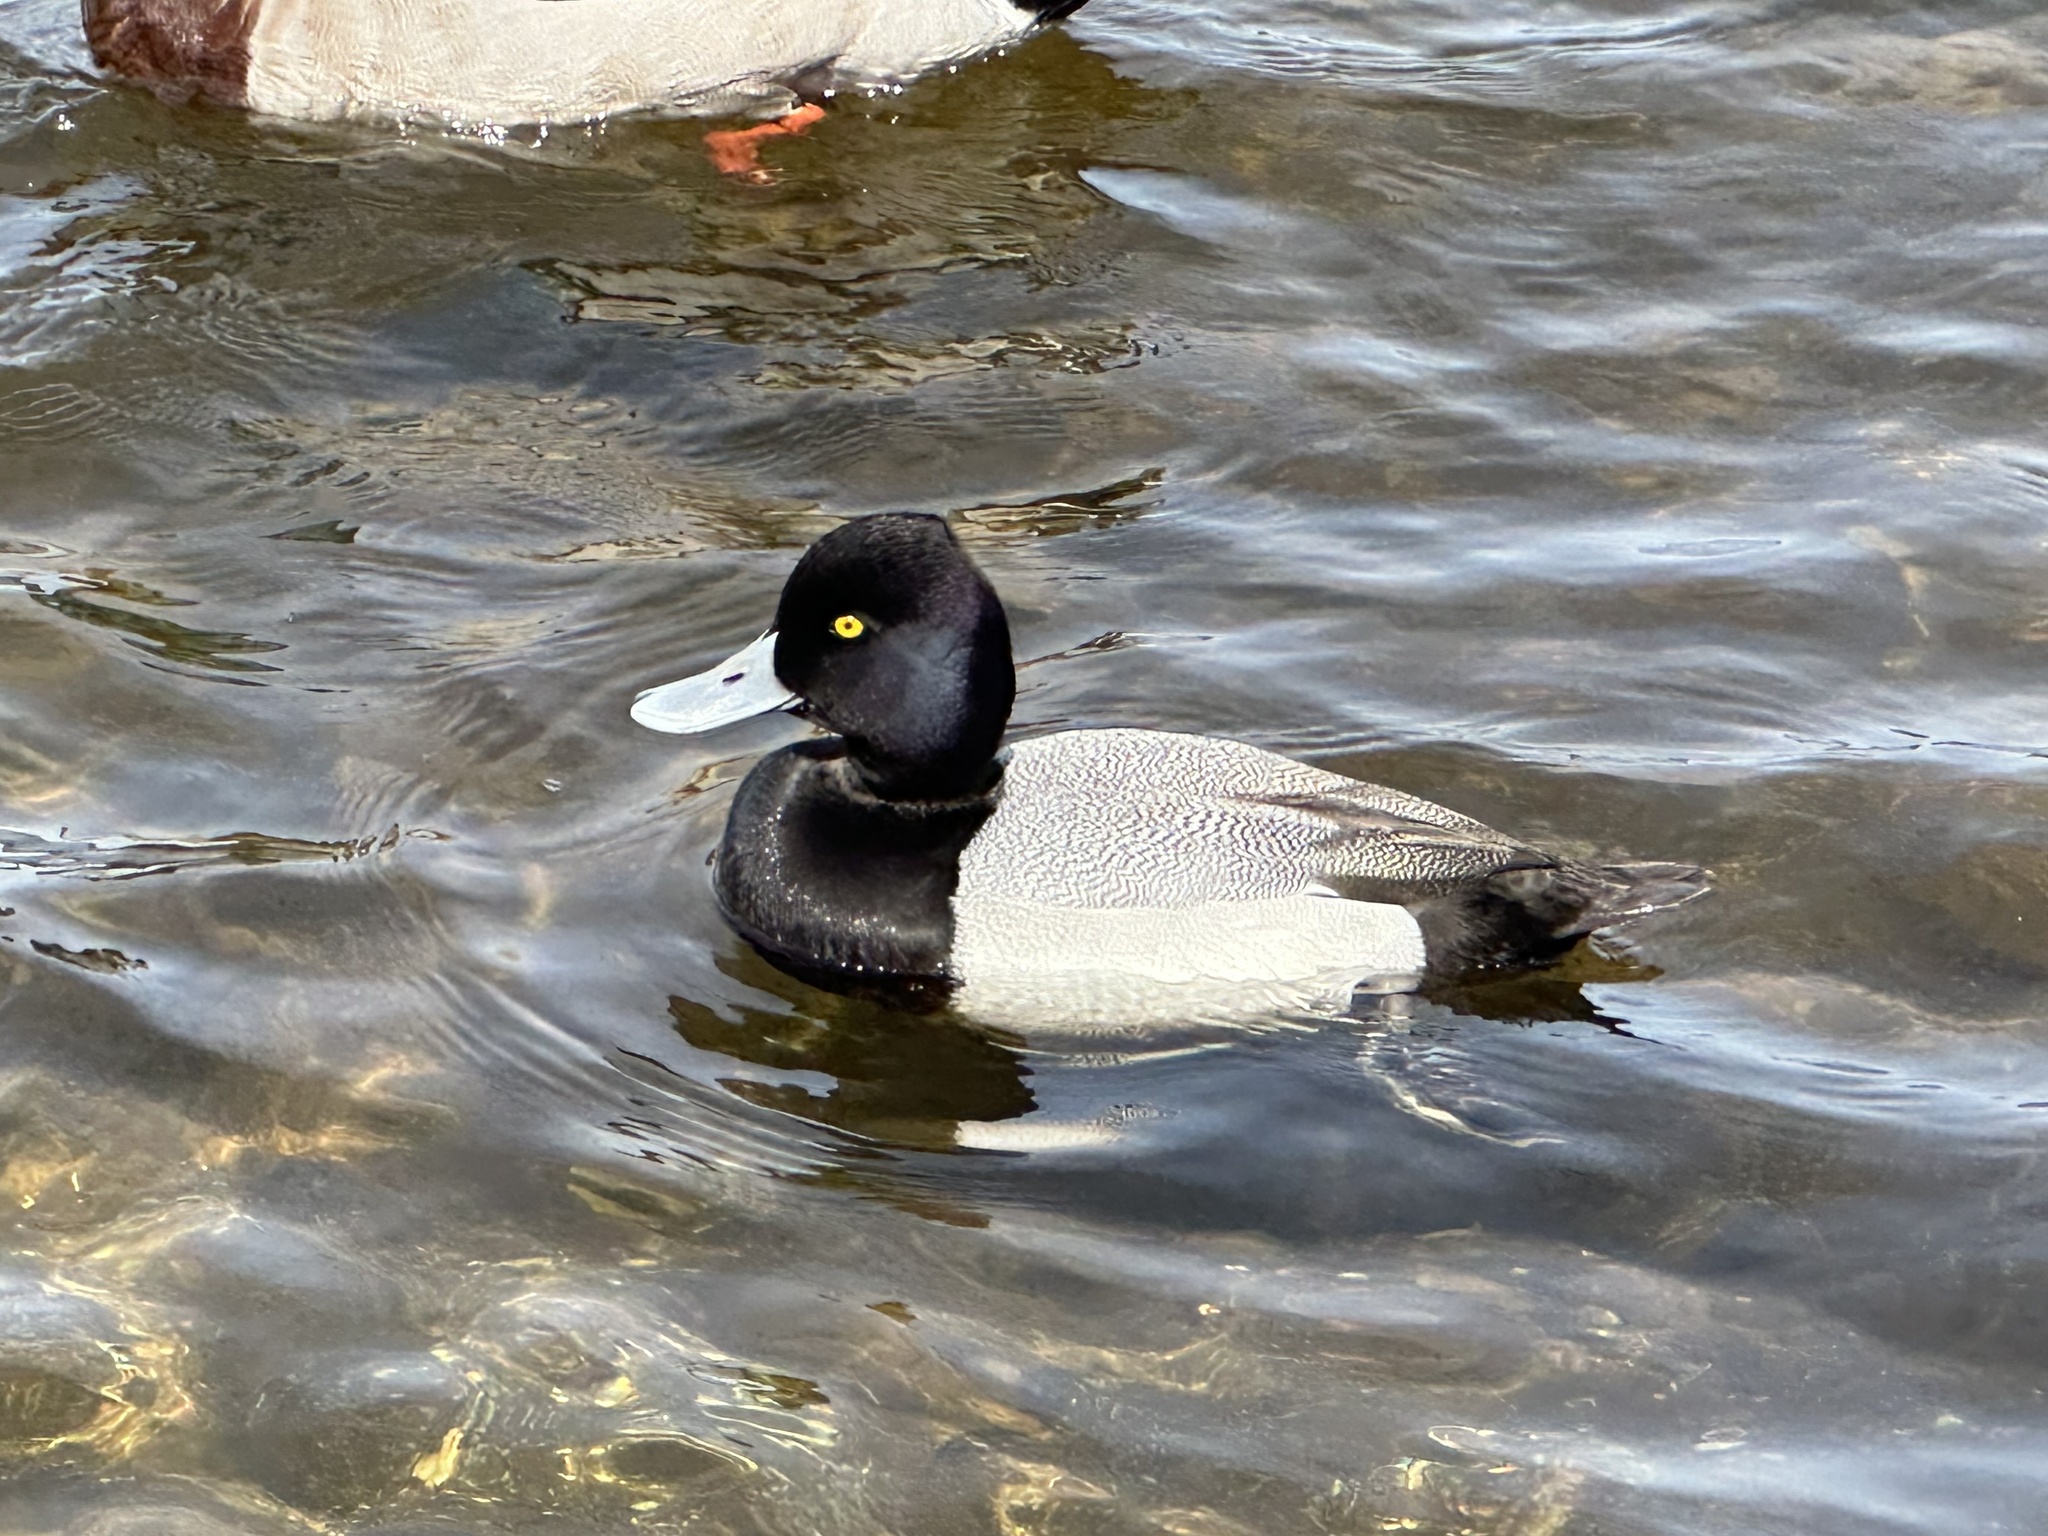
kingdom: Animalia
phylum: Chordata
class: Aves
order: Anseriformes
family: Anatidae
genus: Aythya
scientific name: Aythya affinis
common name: Lesser scaup
